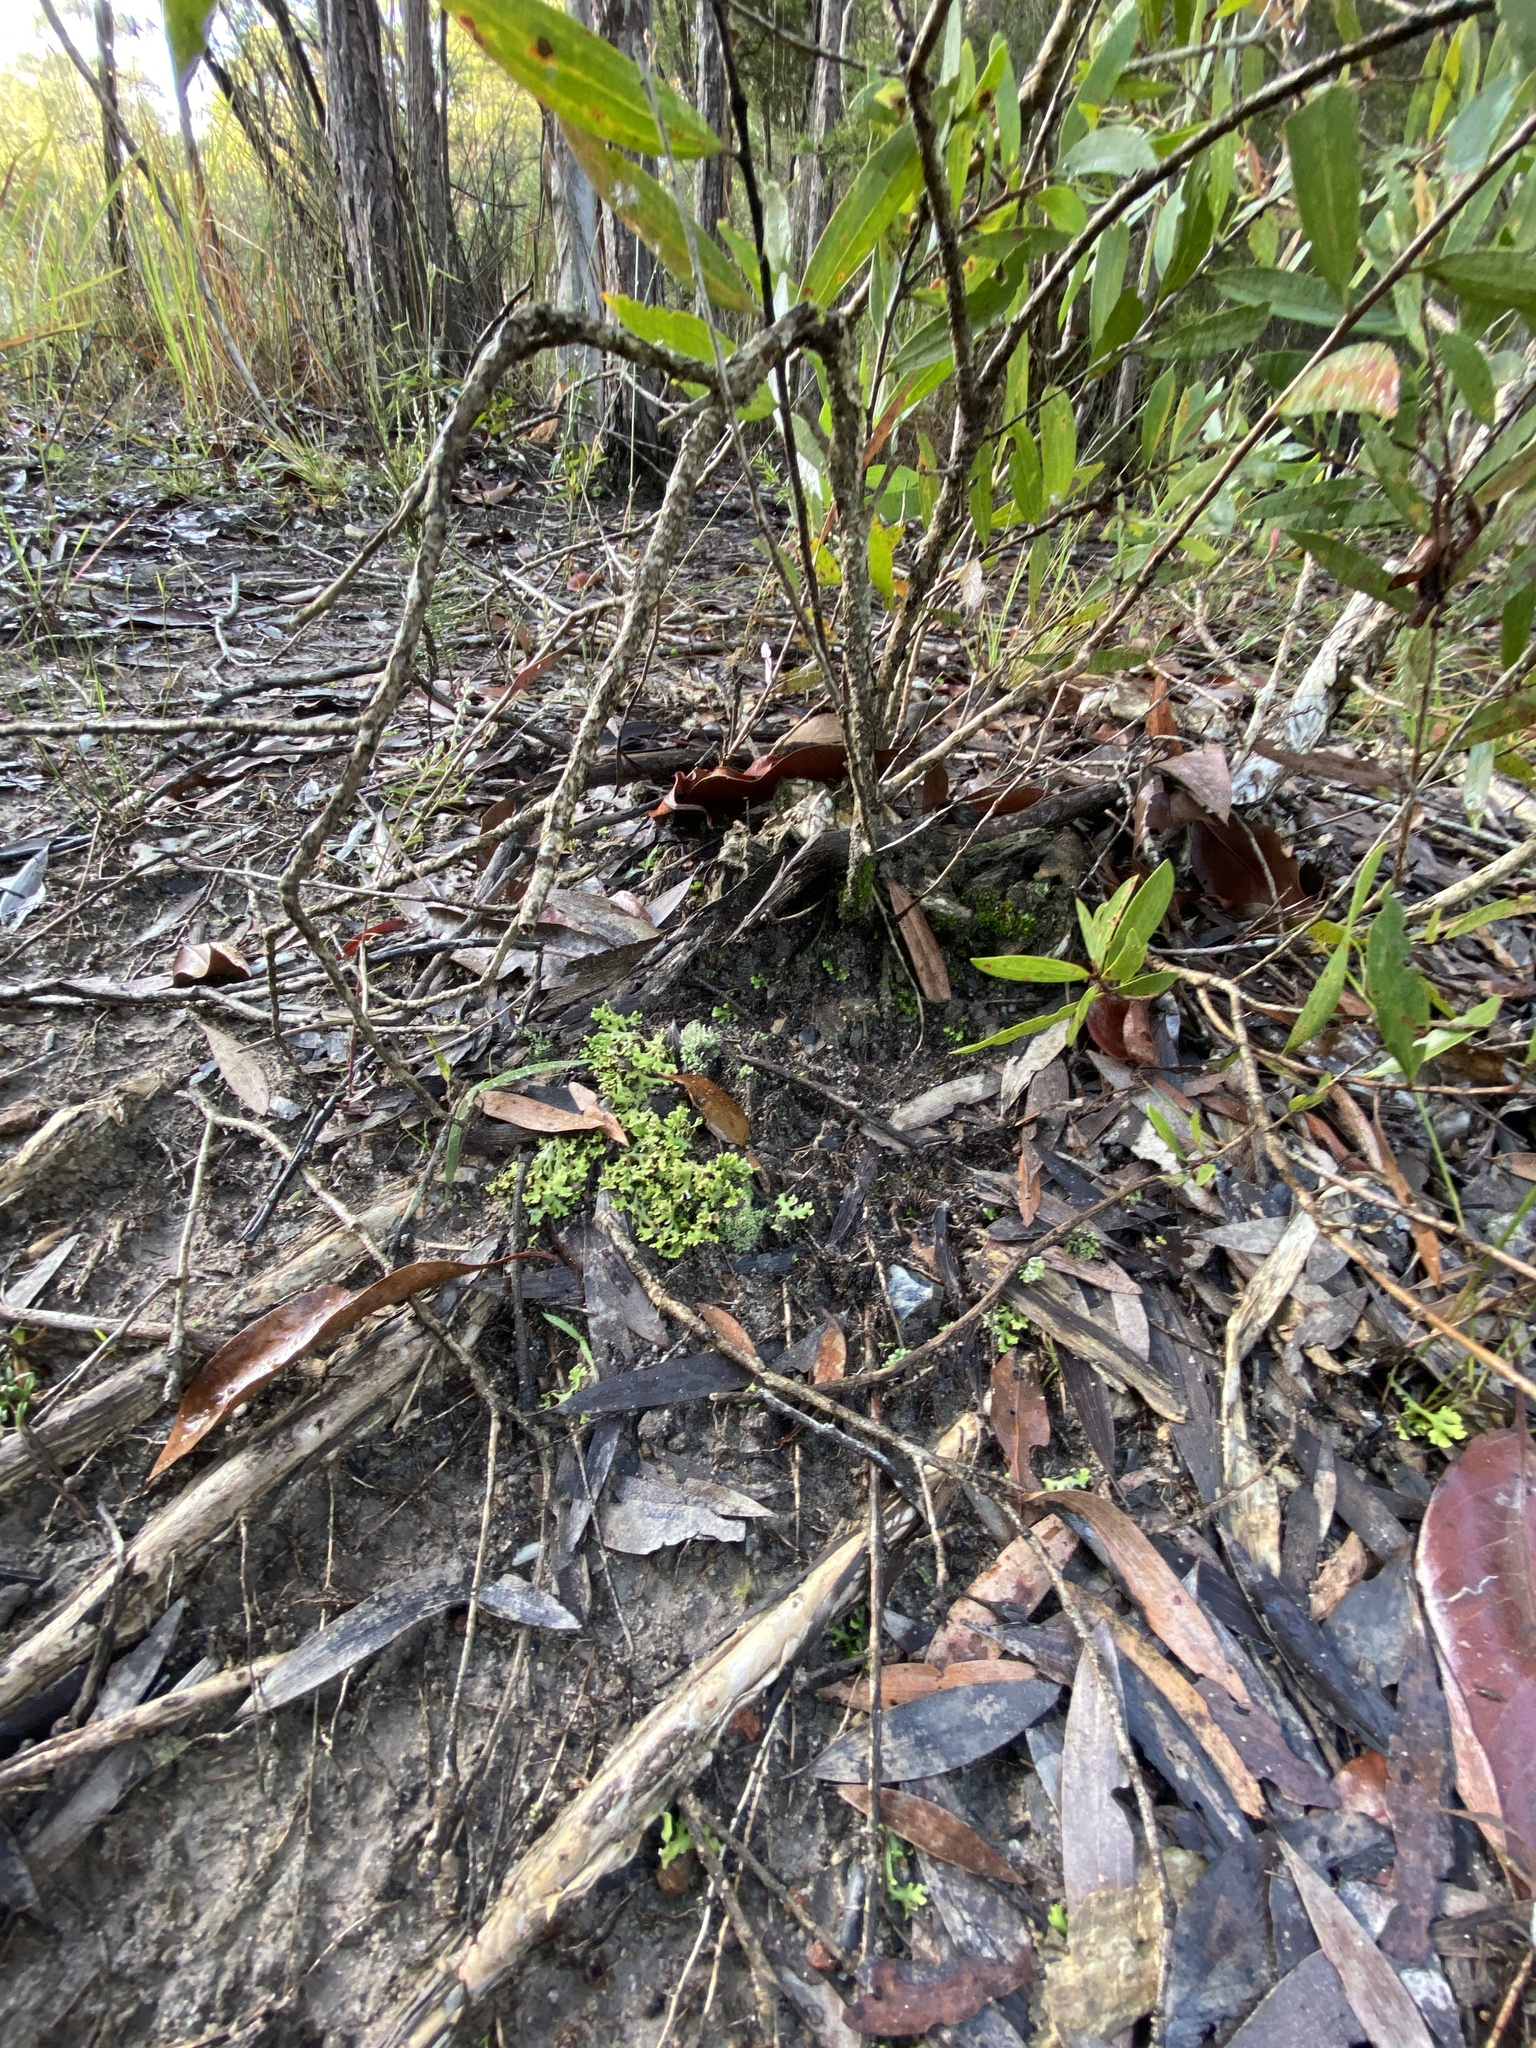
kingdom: Fungi
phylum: Ascomycota
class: Lecanoromycetes
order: Lecanorales
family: Cladoniaceae
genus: Cladia
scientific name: Cladia muelleri
